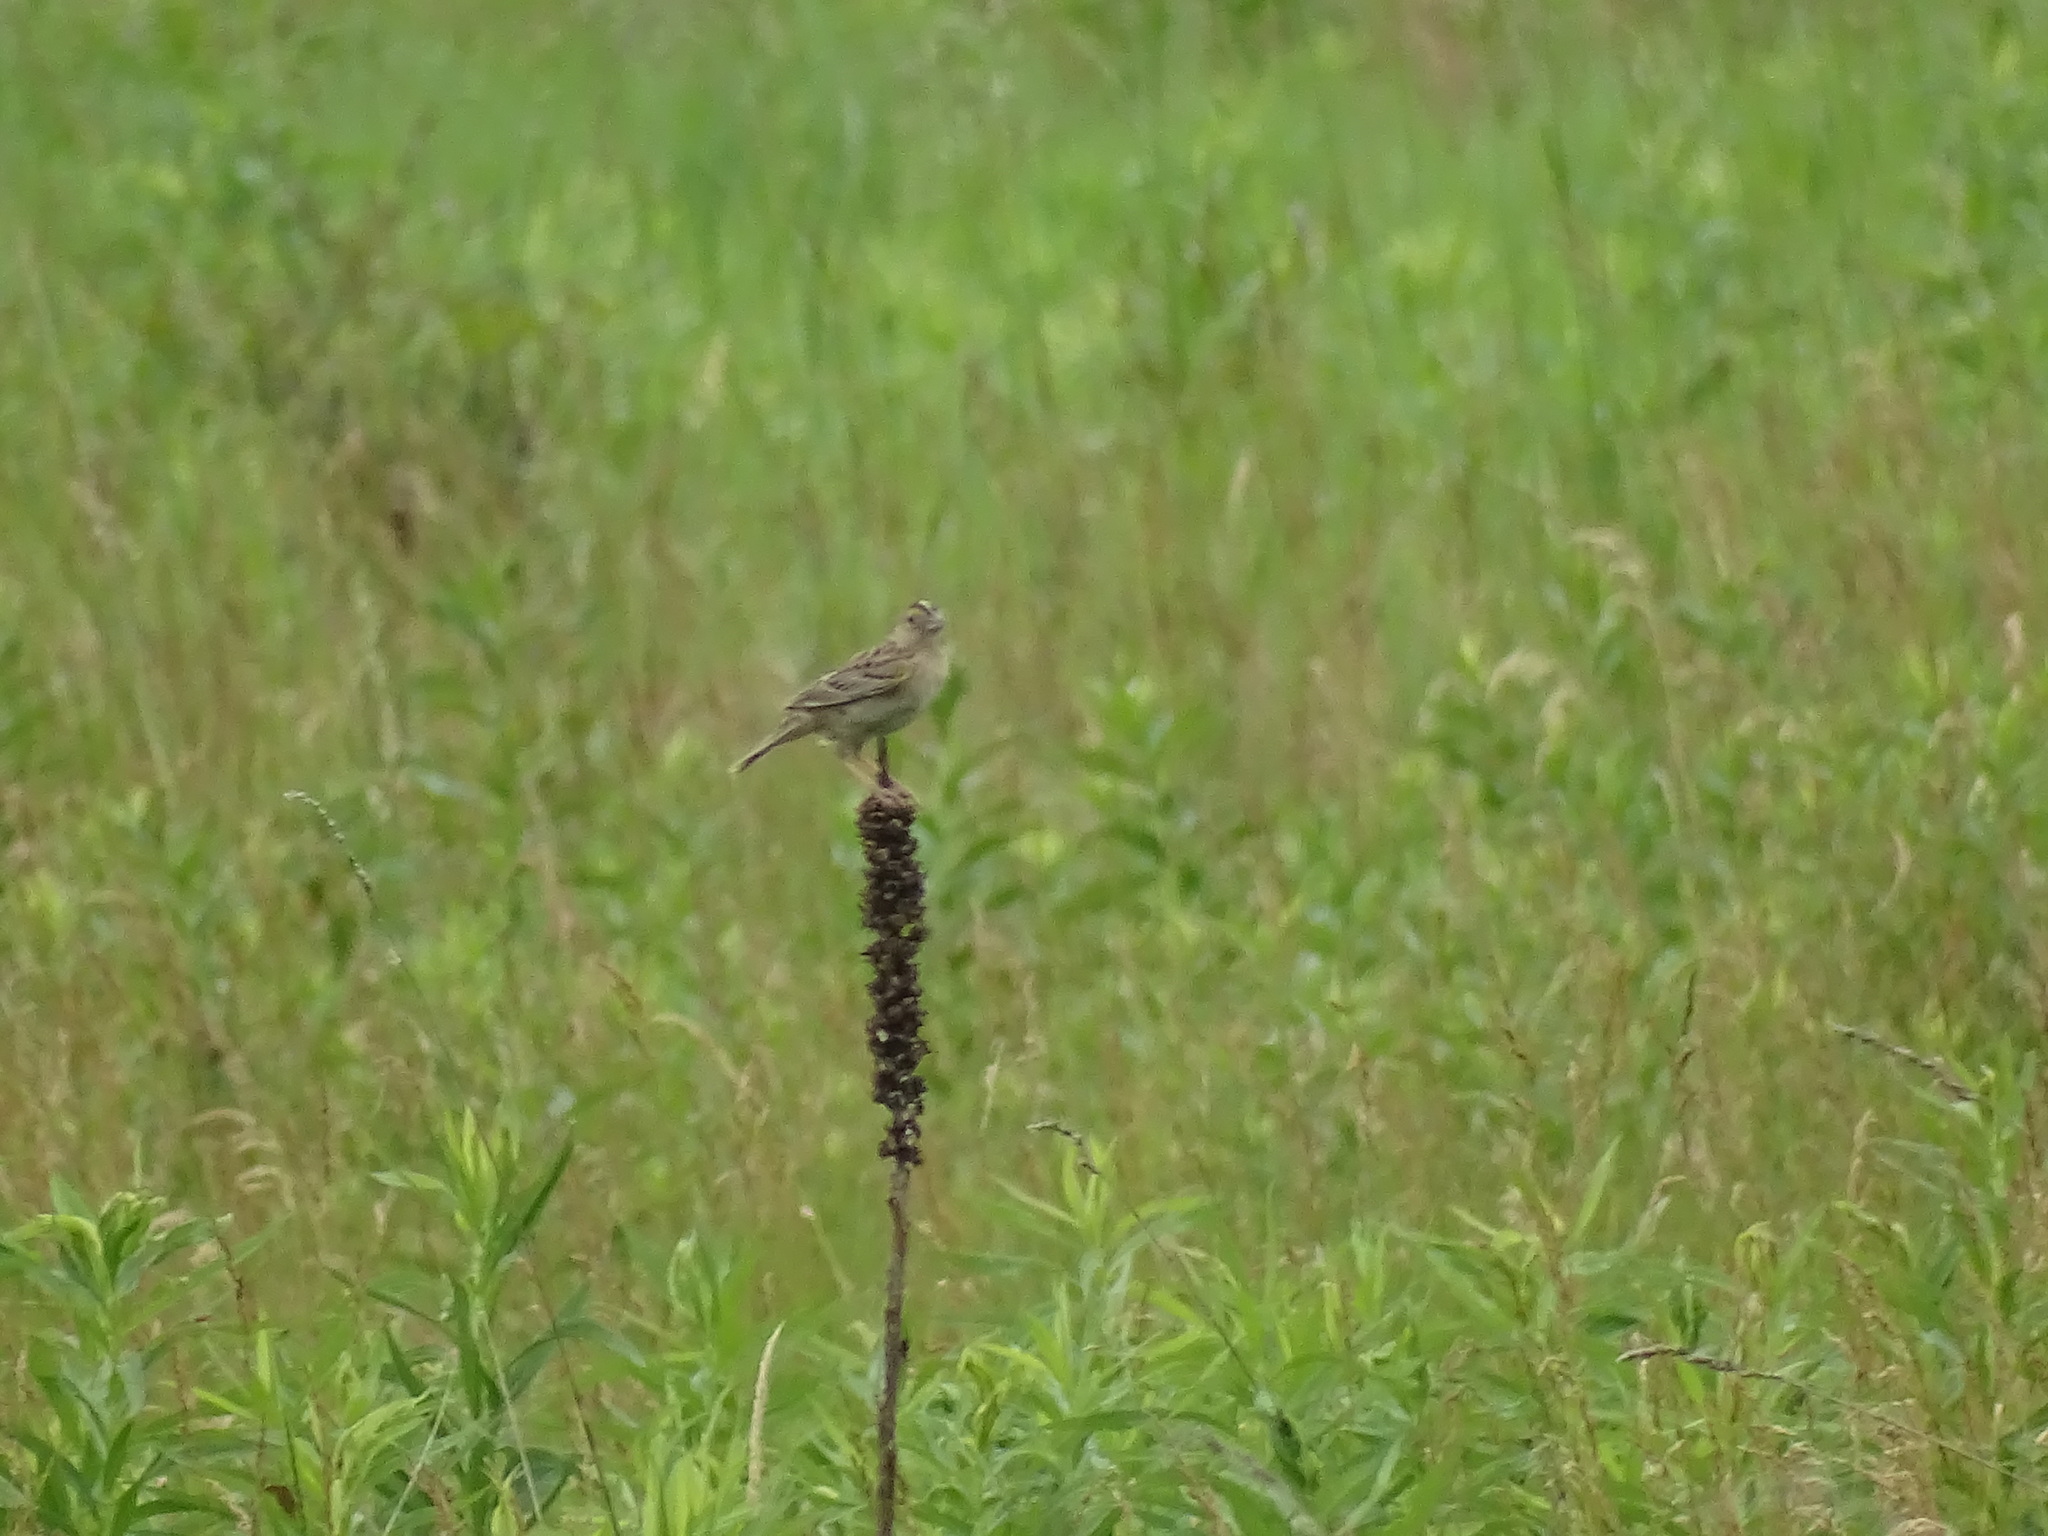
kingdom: Animalia
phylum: Chordata
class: Aves
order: Passeriformes
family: Passerellidae
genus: Ammodramus
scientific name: Ammodramus savannarum
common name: Grasshopper sparrow
